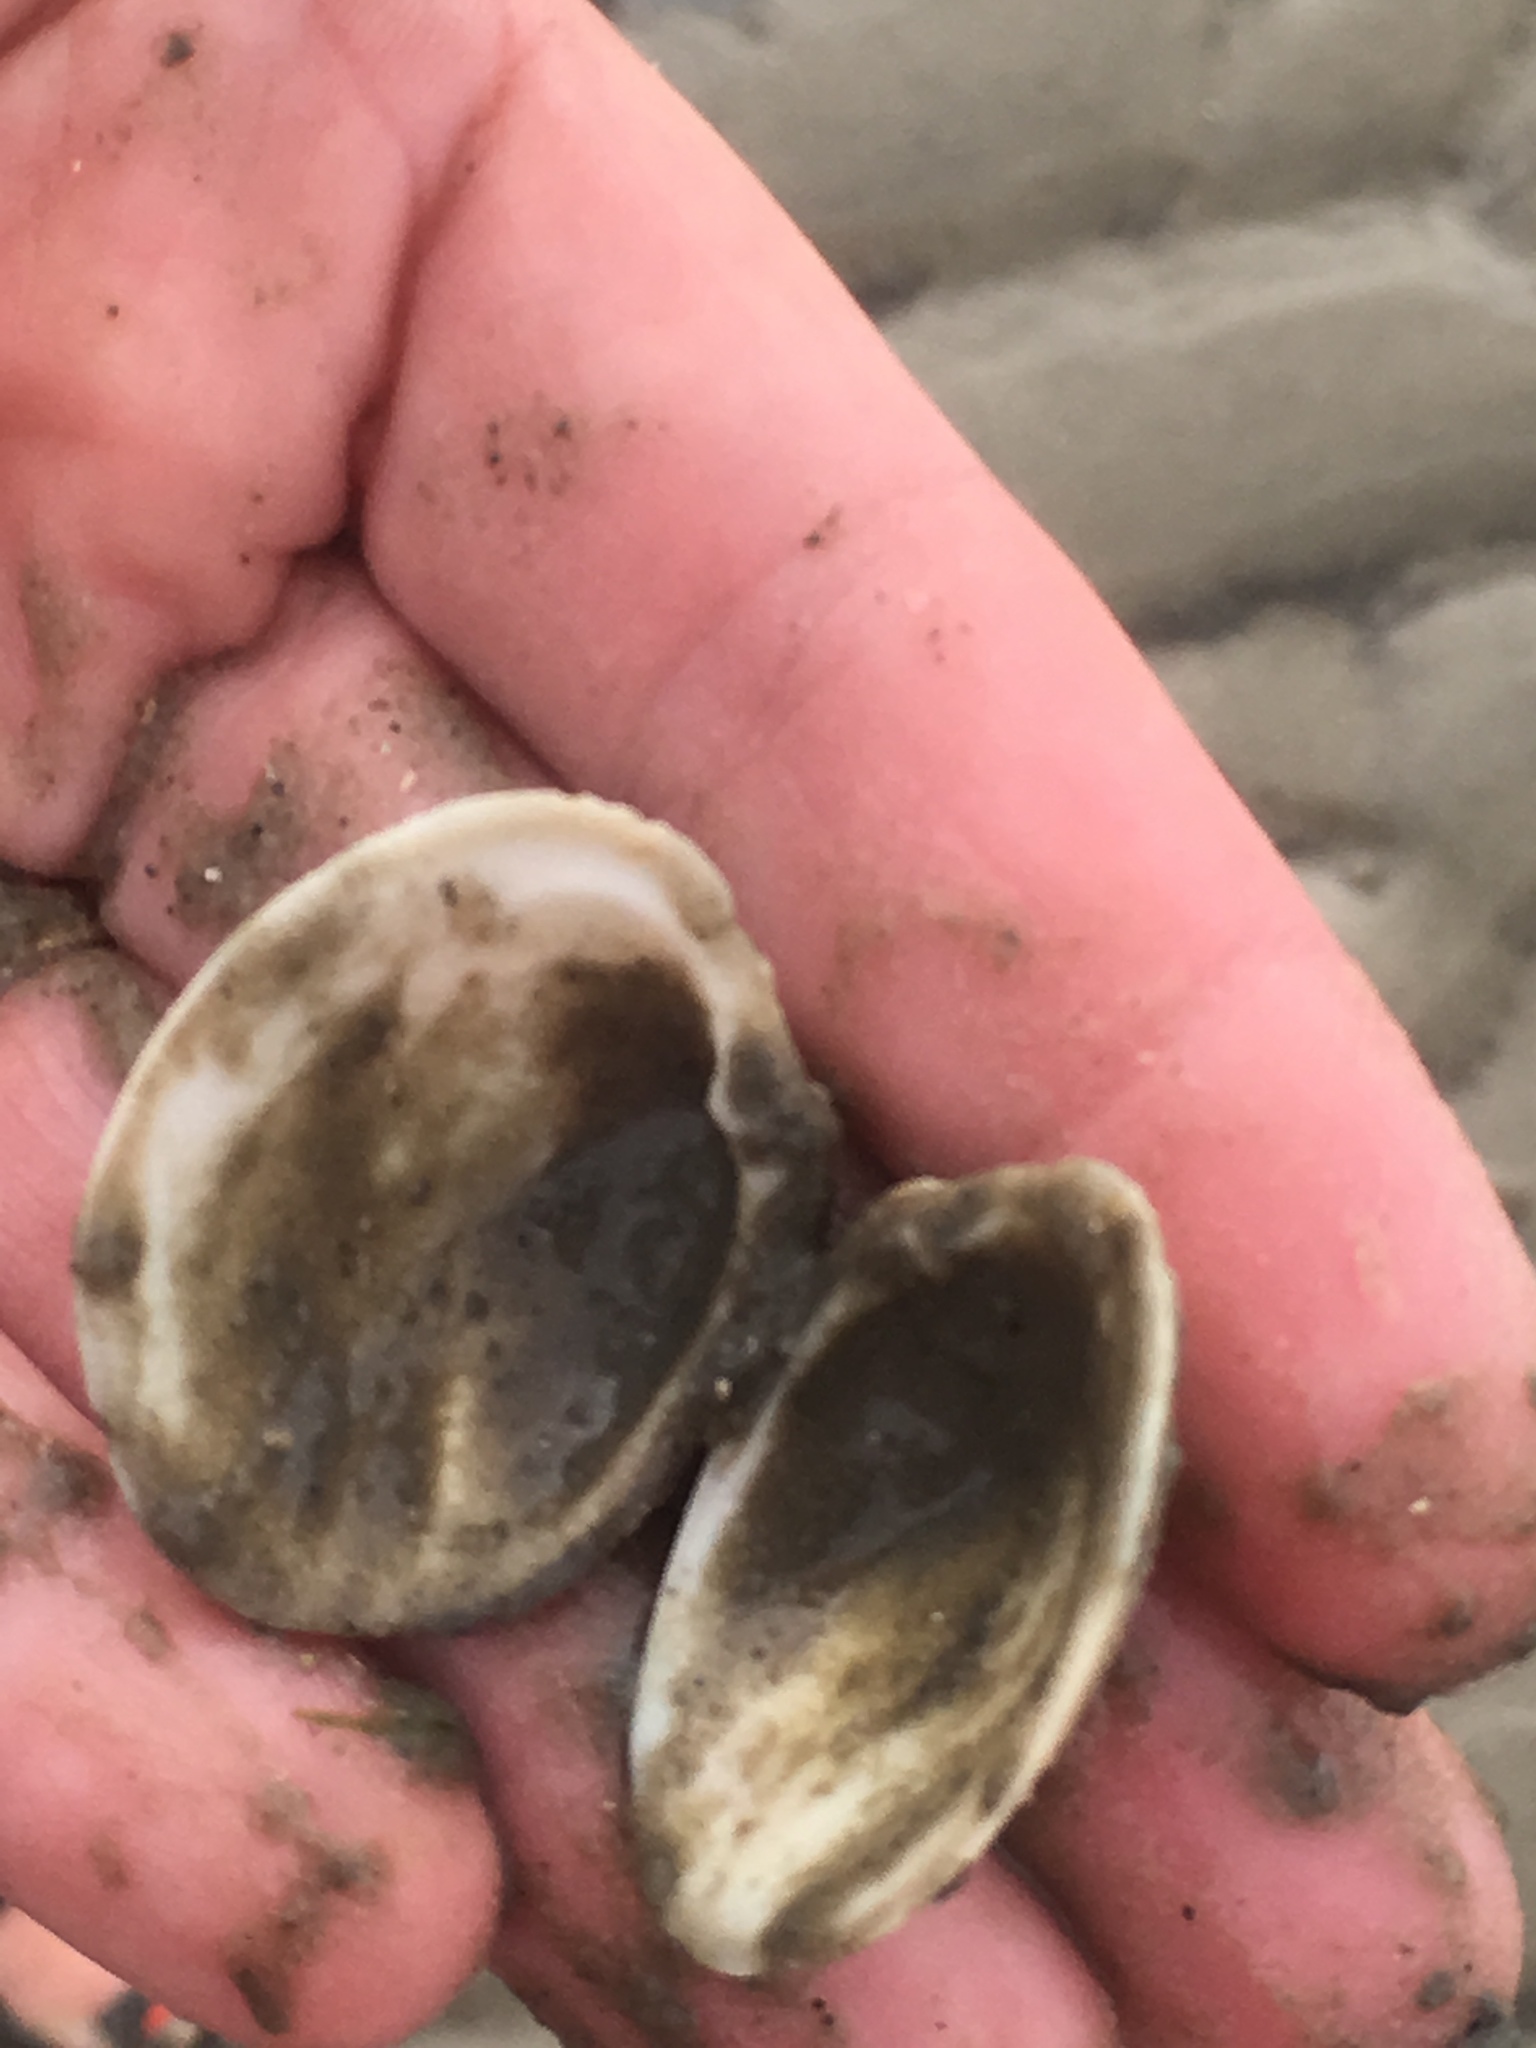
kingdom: Animalia
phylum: Mollusca
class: Bivalvia
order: Venerida
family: Veneridae
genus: Mercenaria
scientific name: Mercenaria campechiensis
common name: Südliche quahog-muschel
